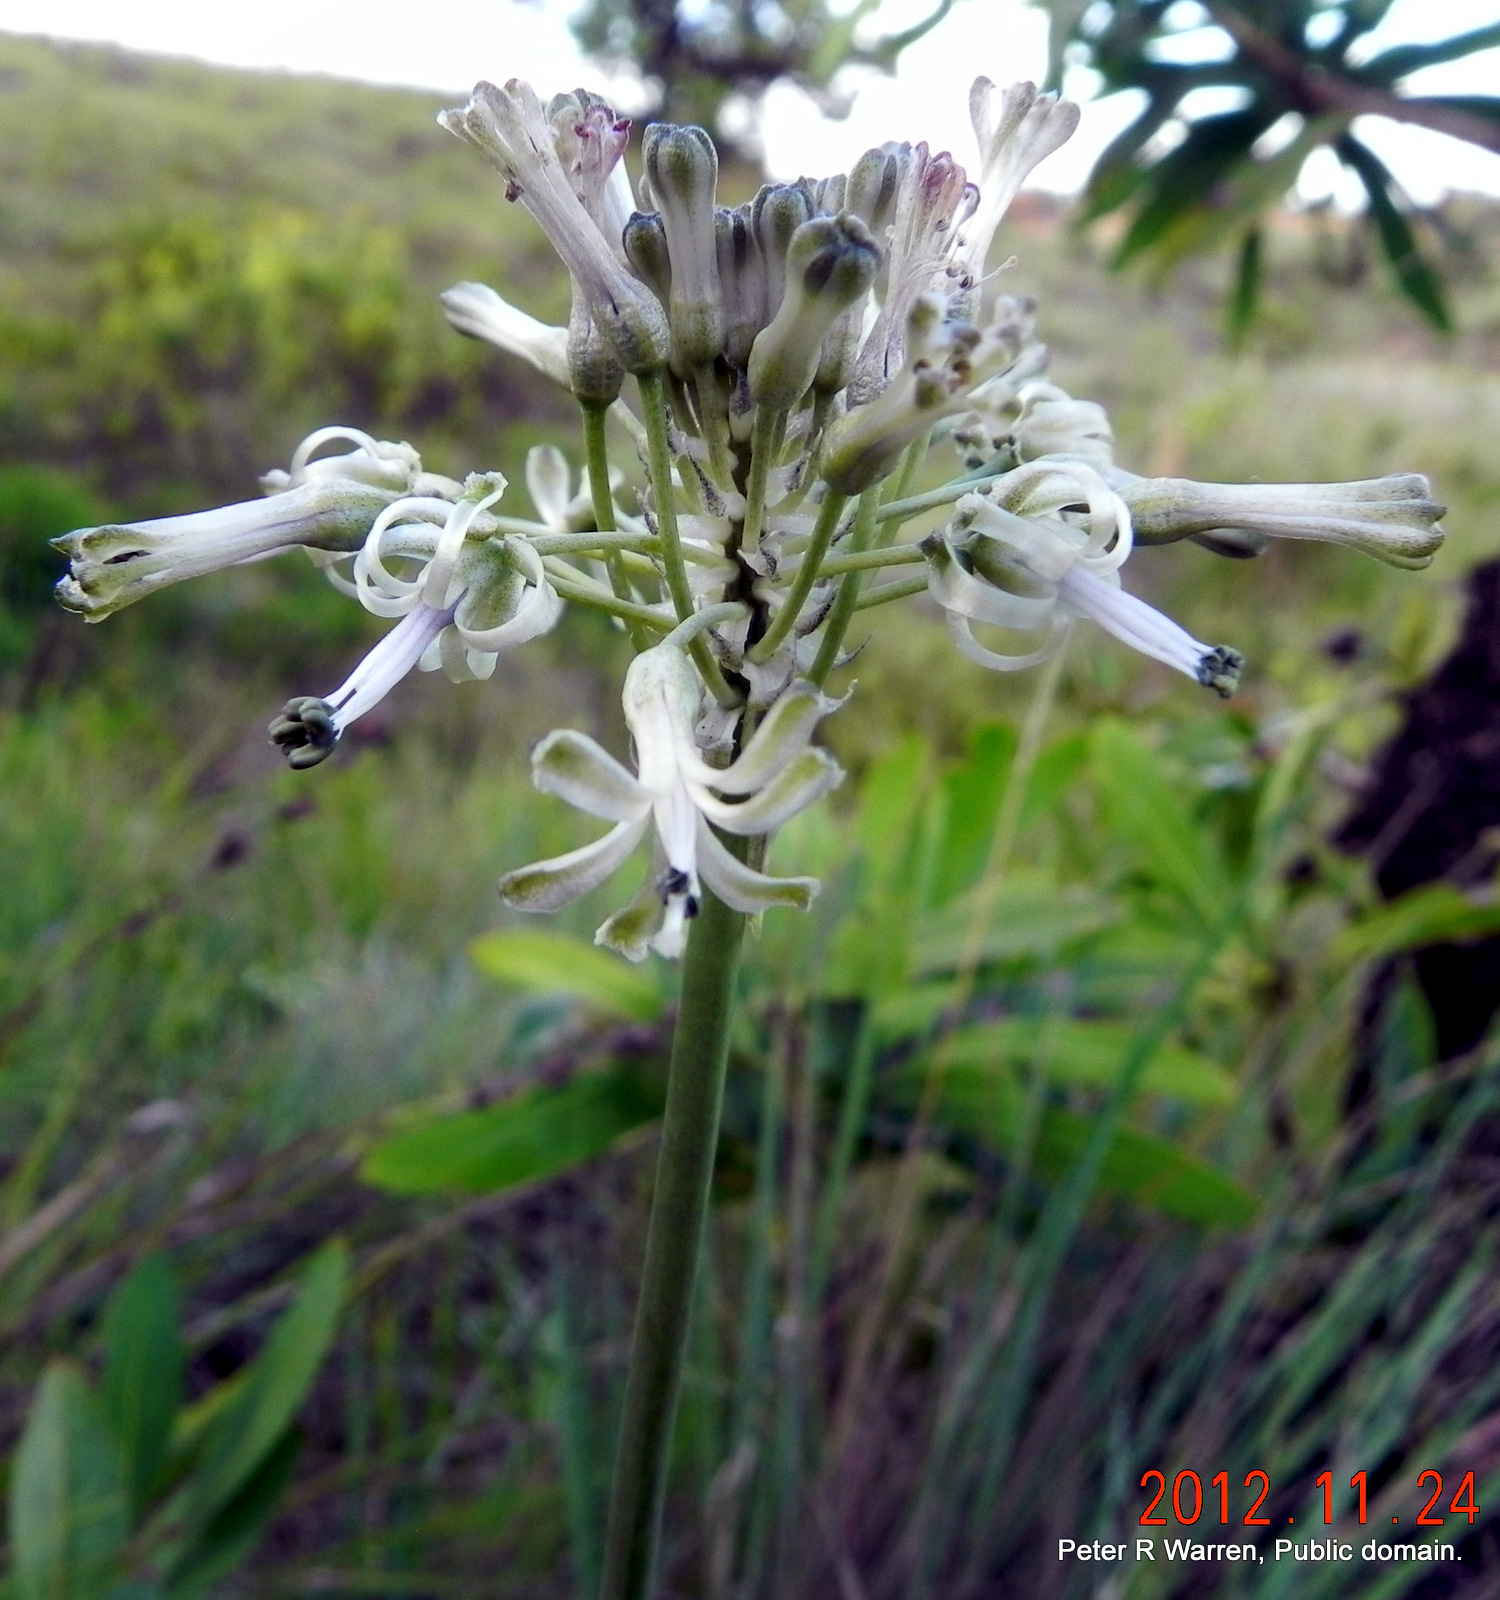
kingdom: Plantae
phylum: Tracheophyta
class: Liliopsida
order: Asparagales
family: Asparagaceae
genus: Drimia
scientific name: Drimia sphaerocephala
